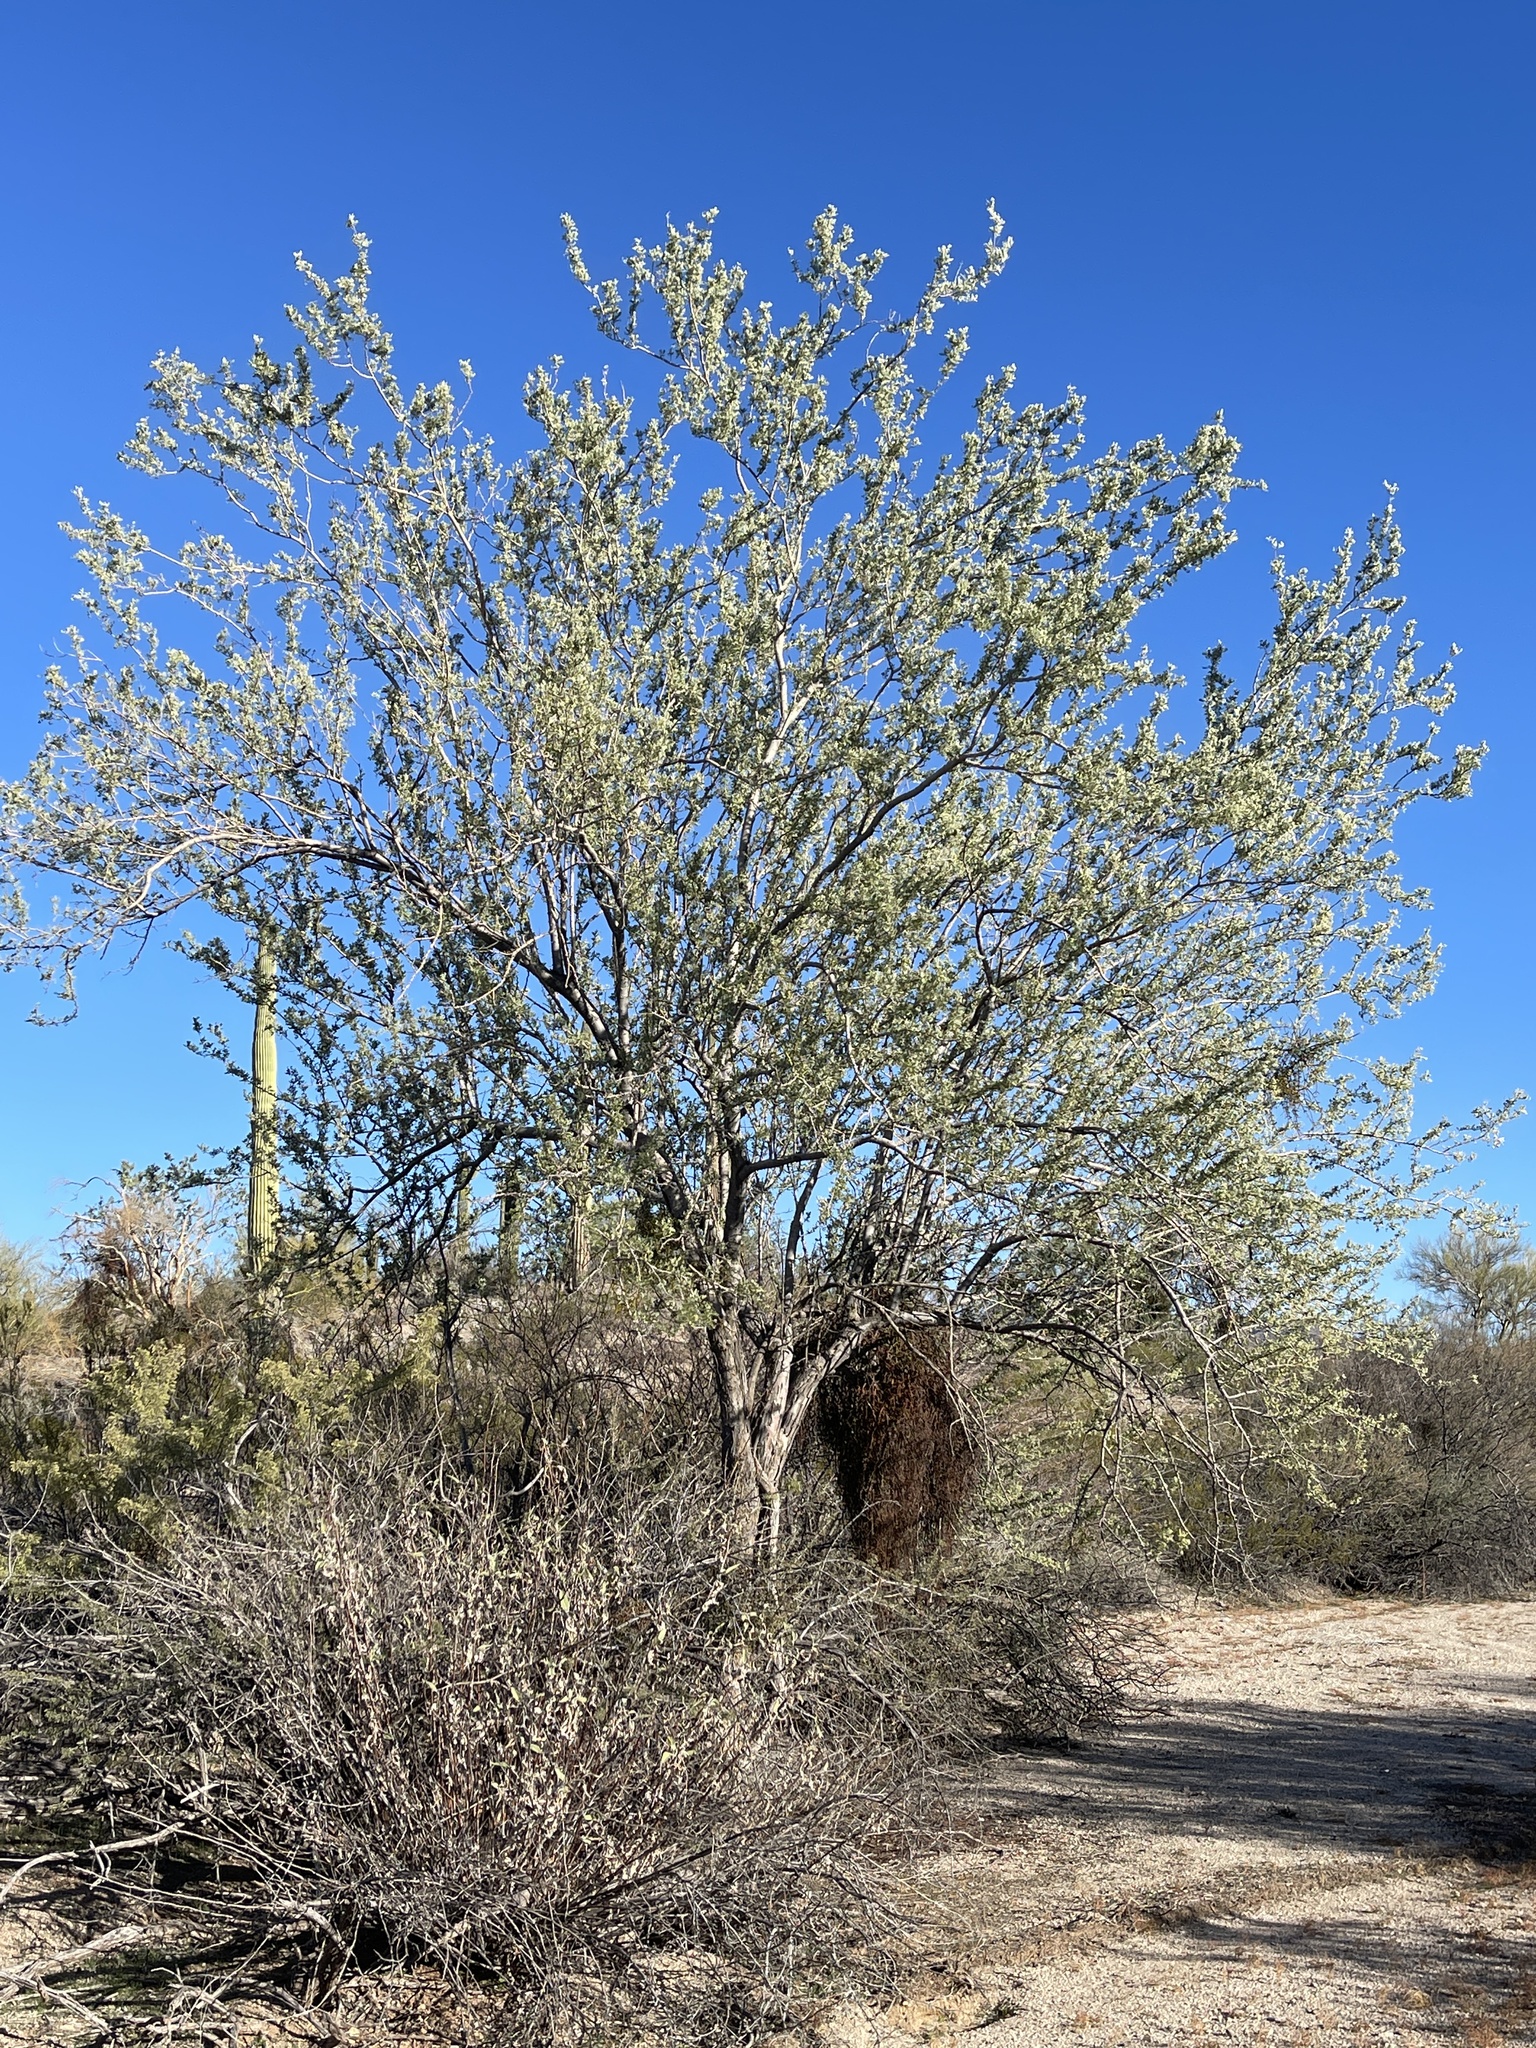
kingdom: Plantae
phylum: Tracheophyta
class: Magnoliopsida
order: Fabales
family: Fabaceae
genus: Olneya
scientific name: Olneya tesota
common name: Desert ironwood
